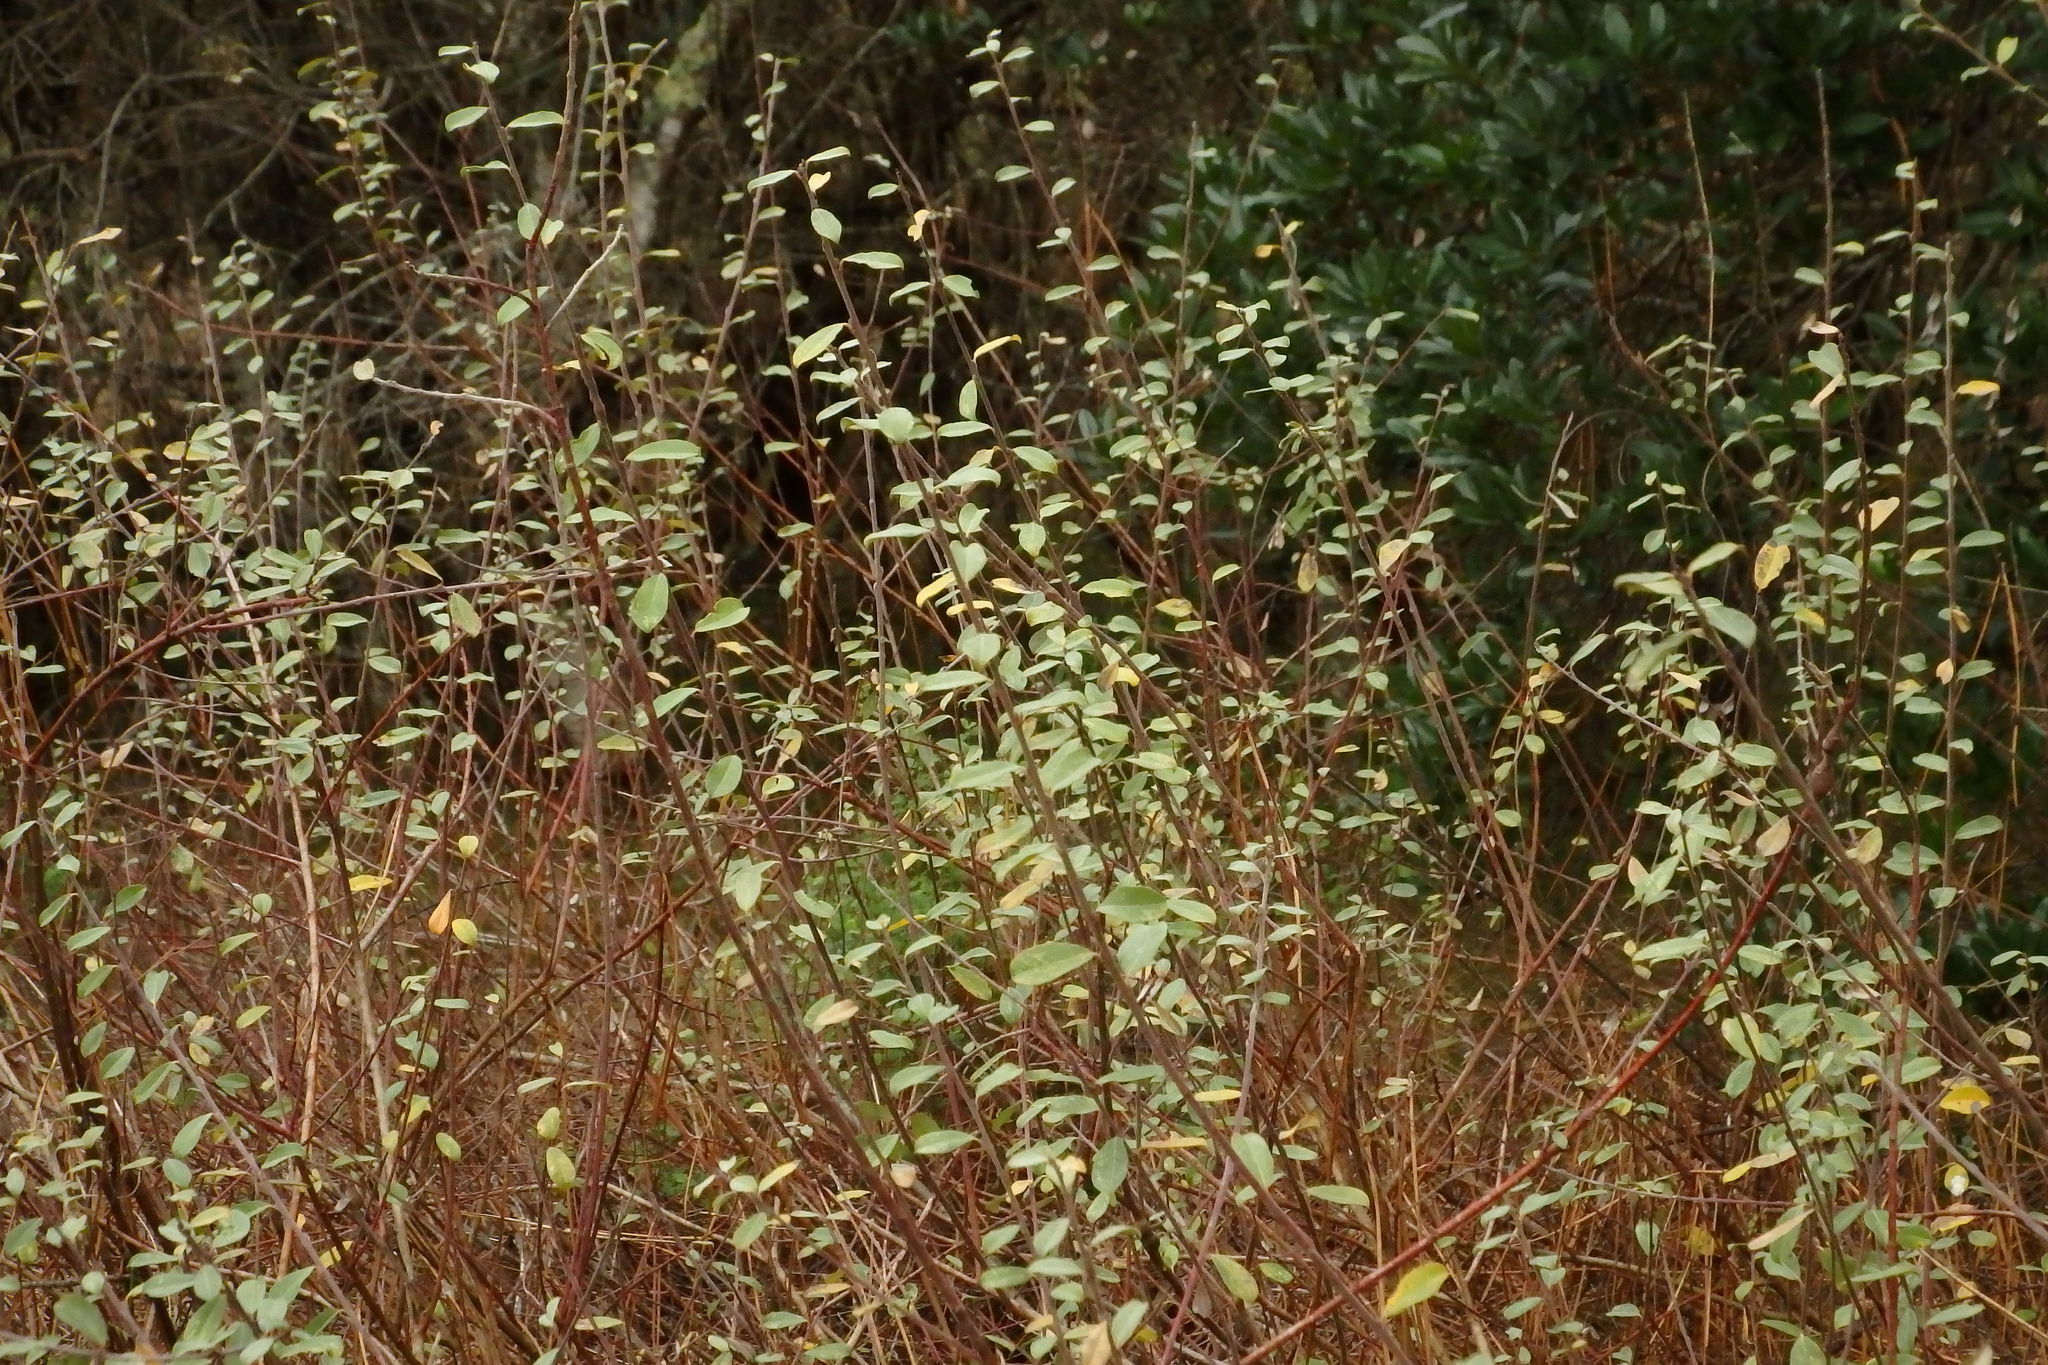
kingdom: Plantae
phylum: Tracheophyta
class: Magnoliopsida
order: Malpighiales
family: Salicaceae
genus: Salix
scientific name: Salix repens
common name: Creeping willow
